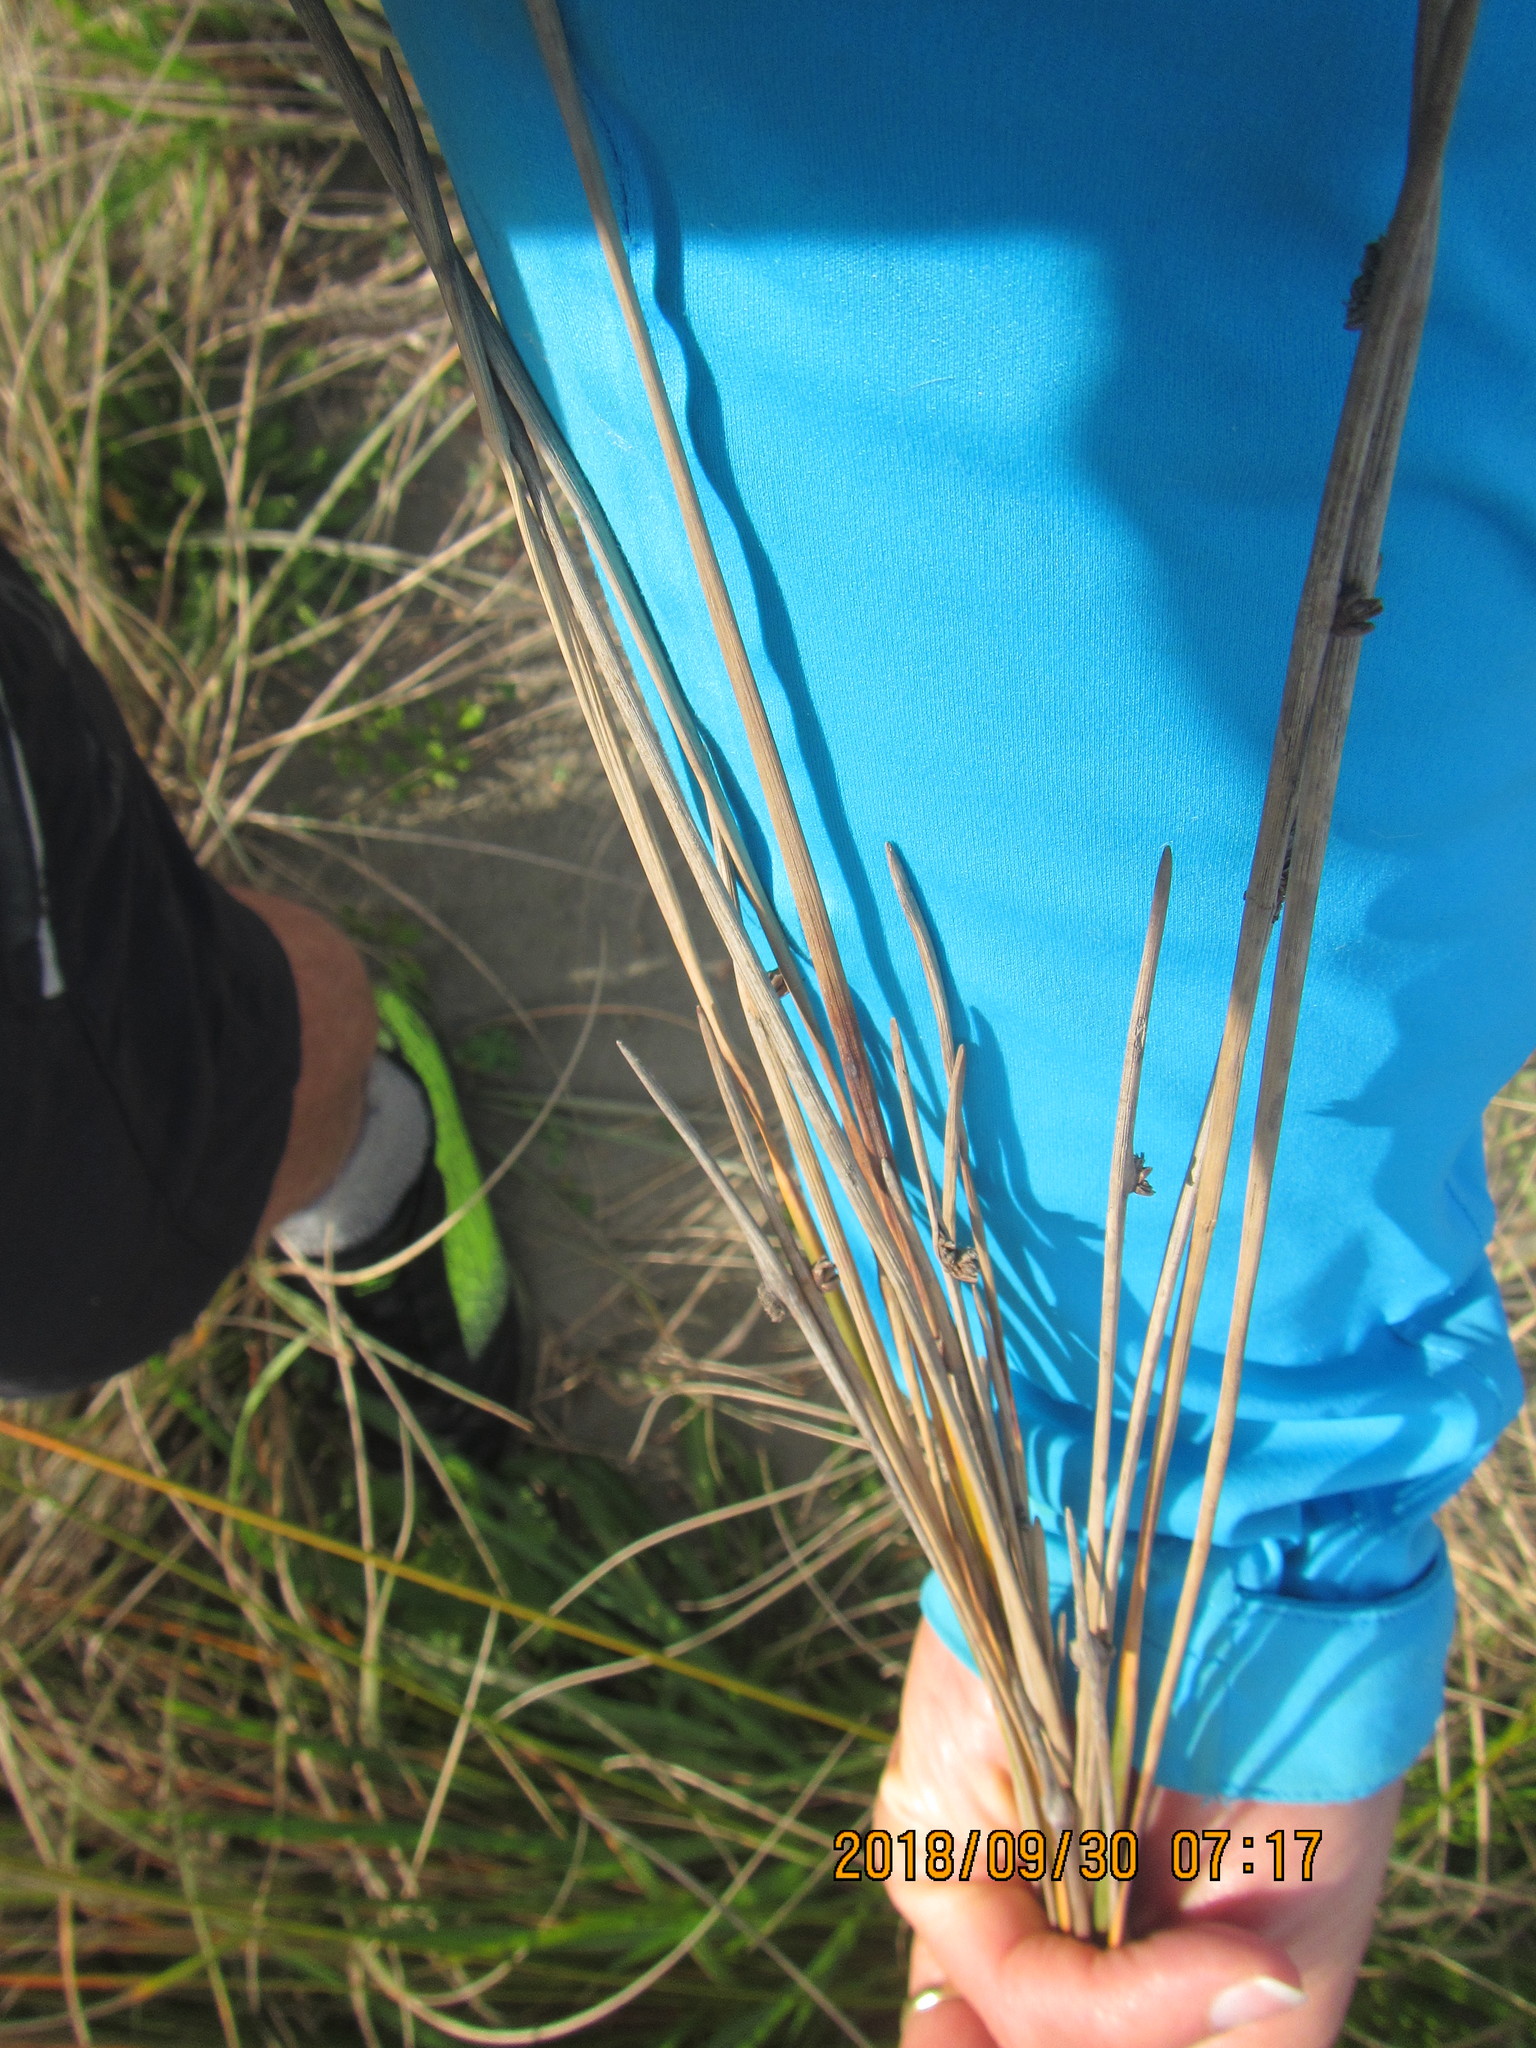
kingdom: Plantae
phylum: Tracheophyta
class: Liliopsida
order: Poales
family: Cyperaceae
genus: Ficinia
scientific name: Ficinia nodosa
